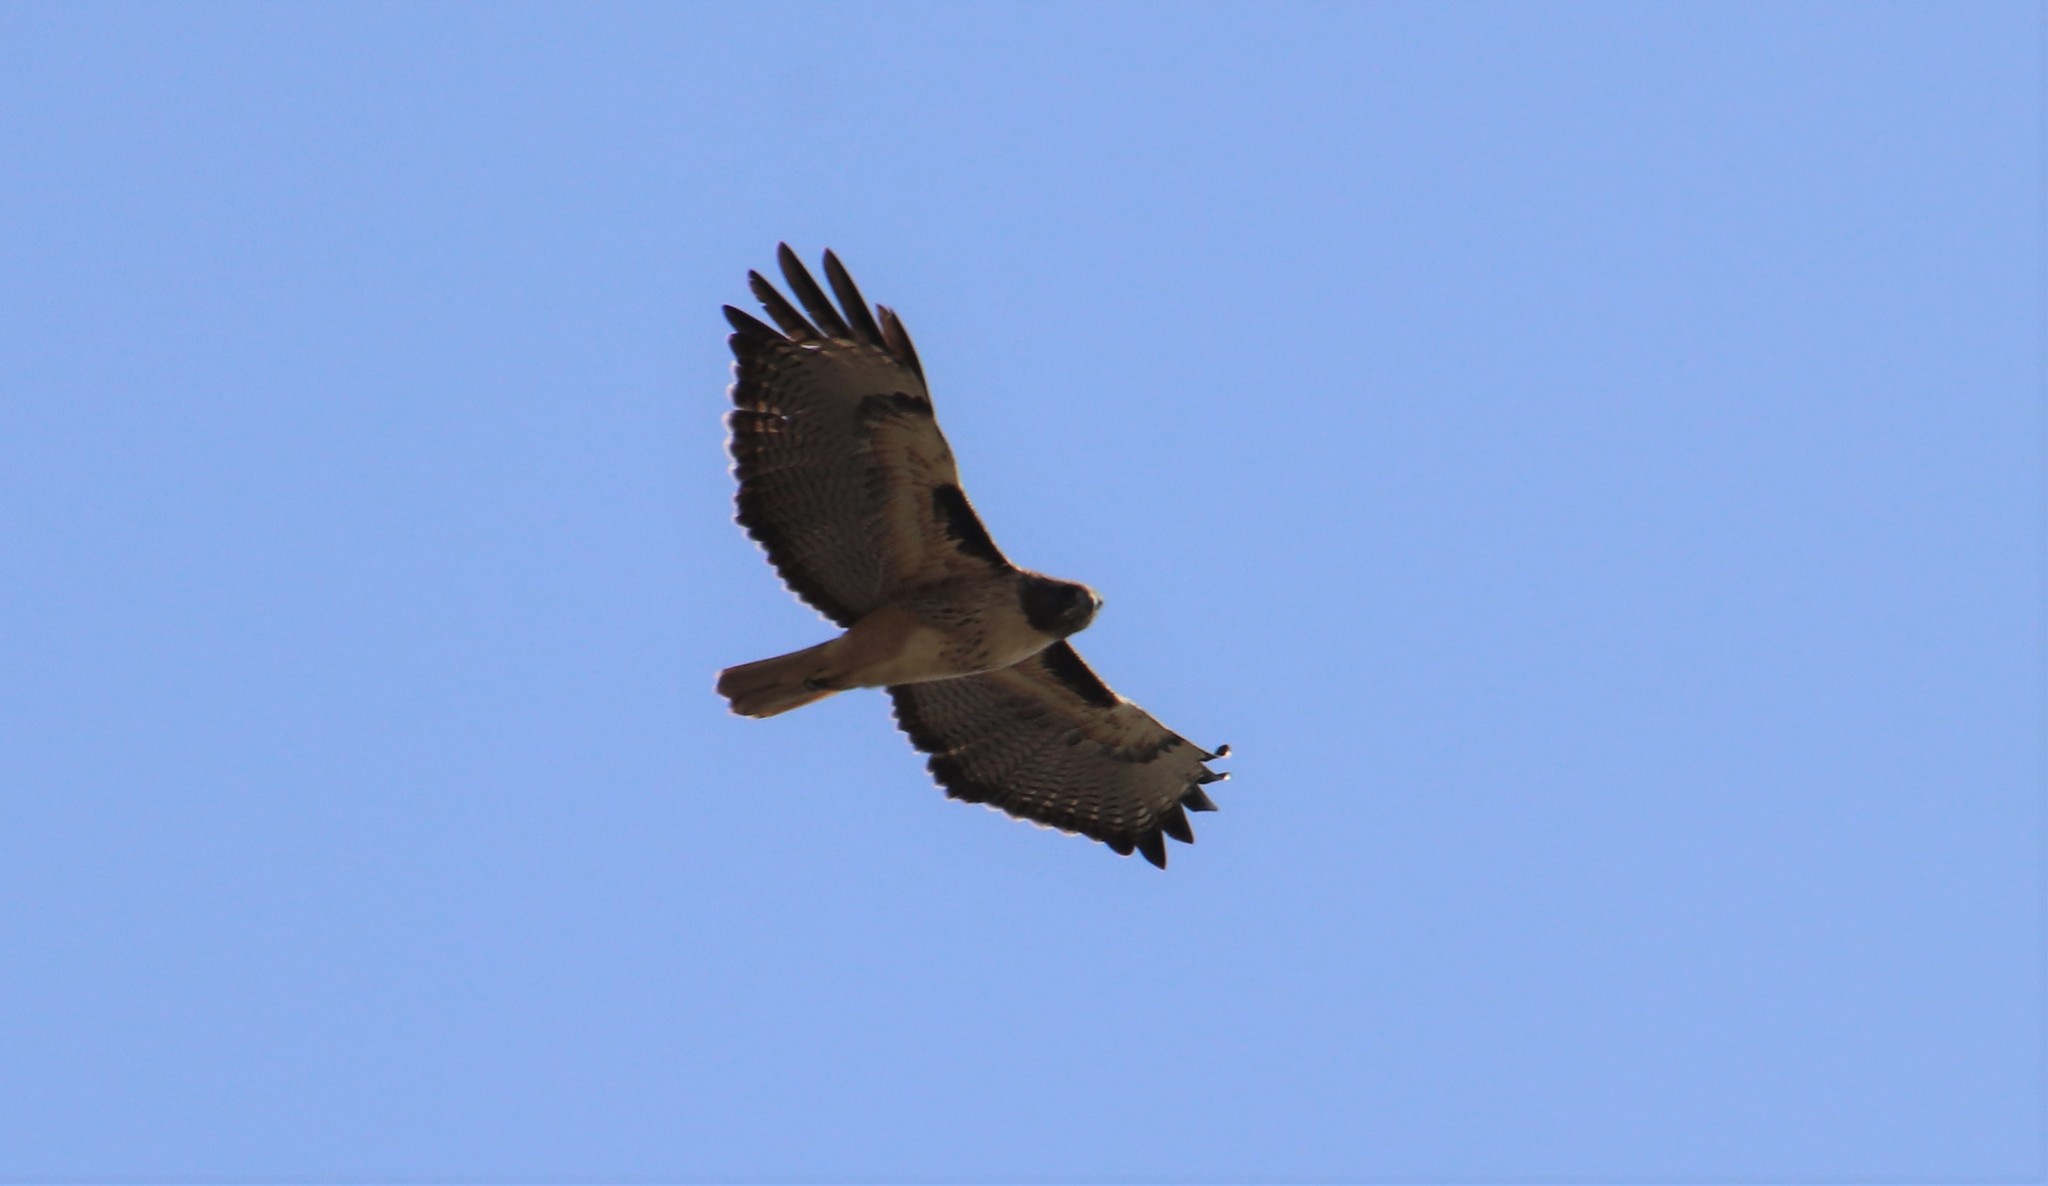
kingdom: Animalia
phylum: Chordata
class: Aves
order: Accipitriformes
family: Accipitridae
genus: Buteo
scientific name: Buteo jamaicensis
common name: Red-tailed hawk
